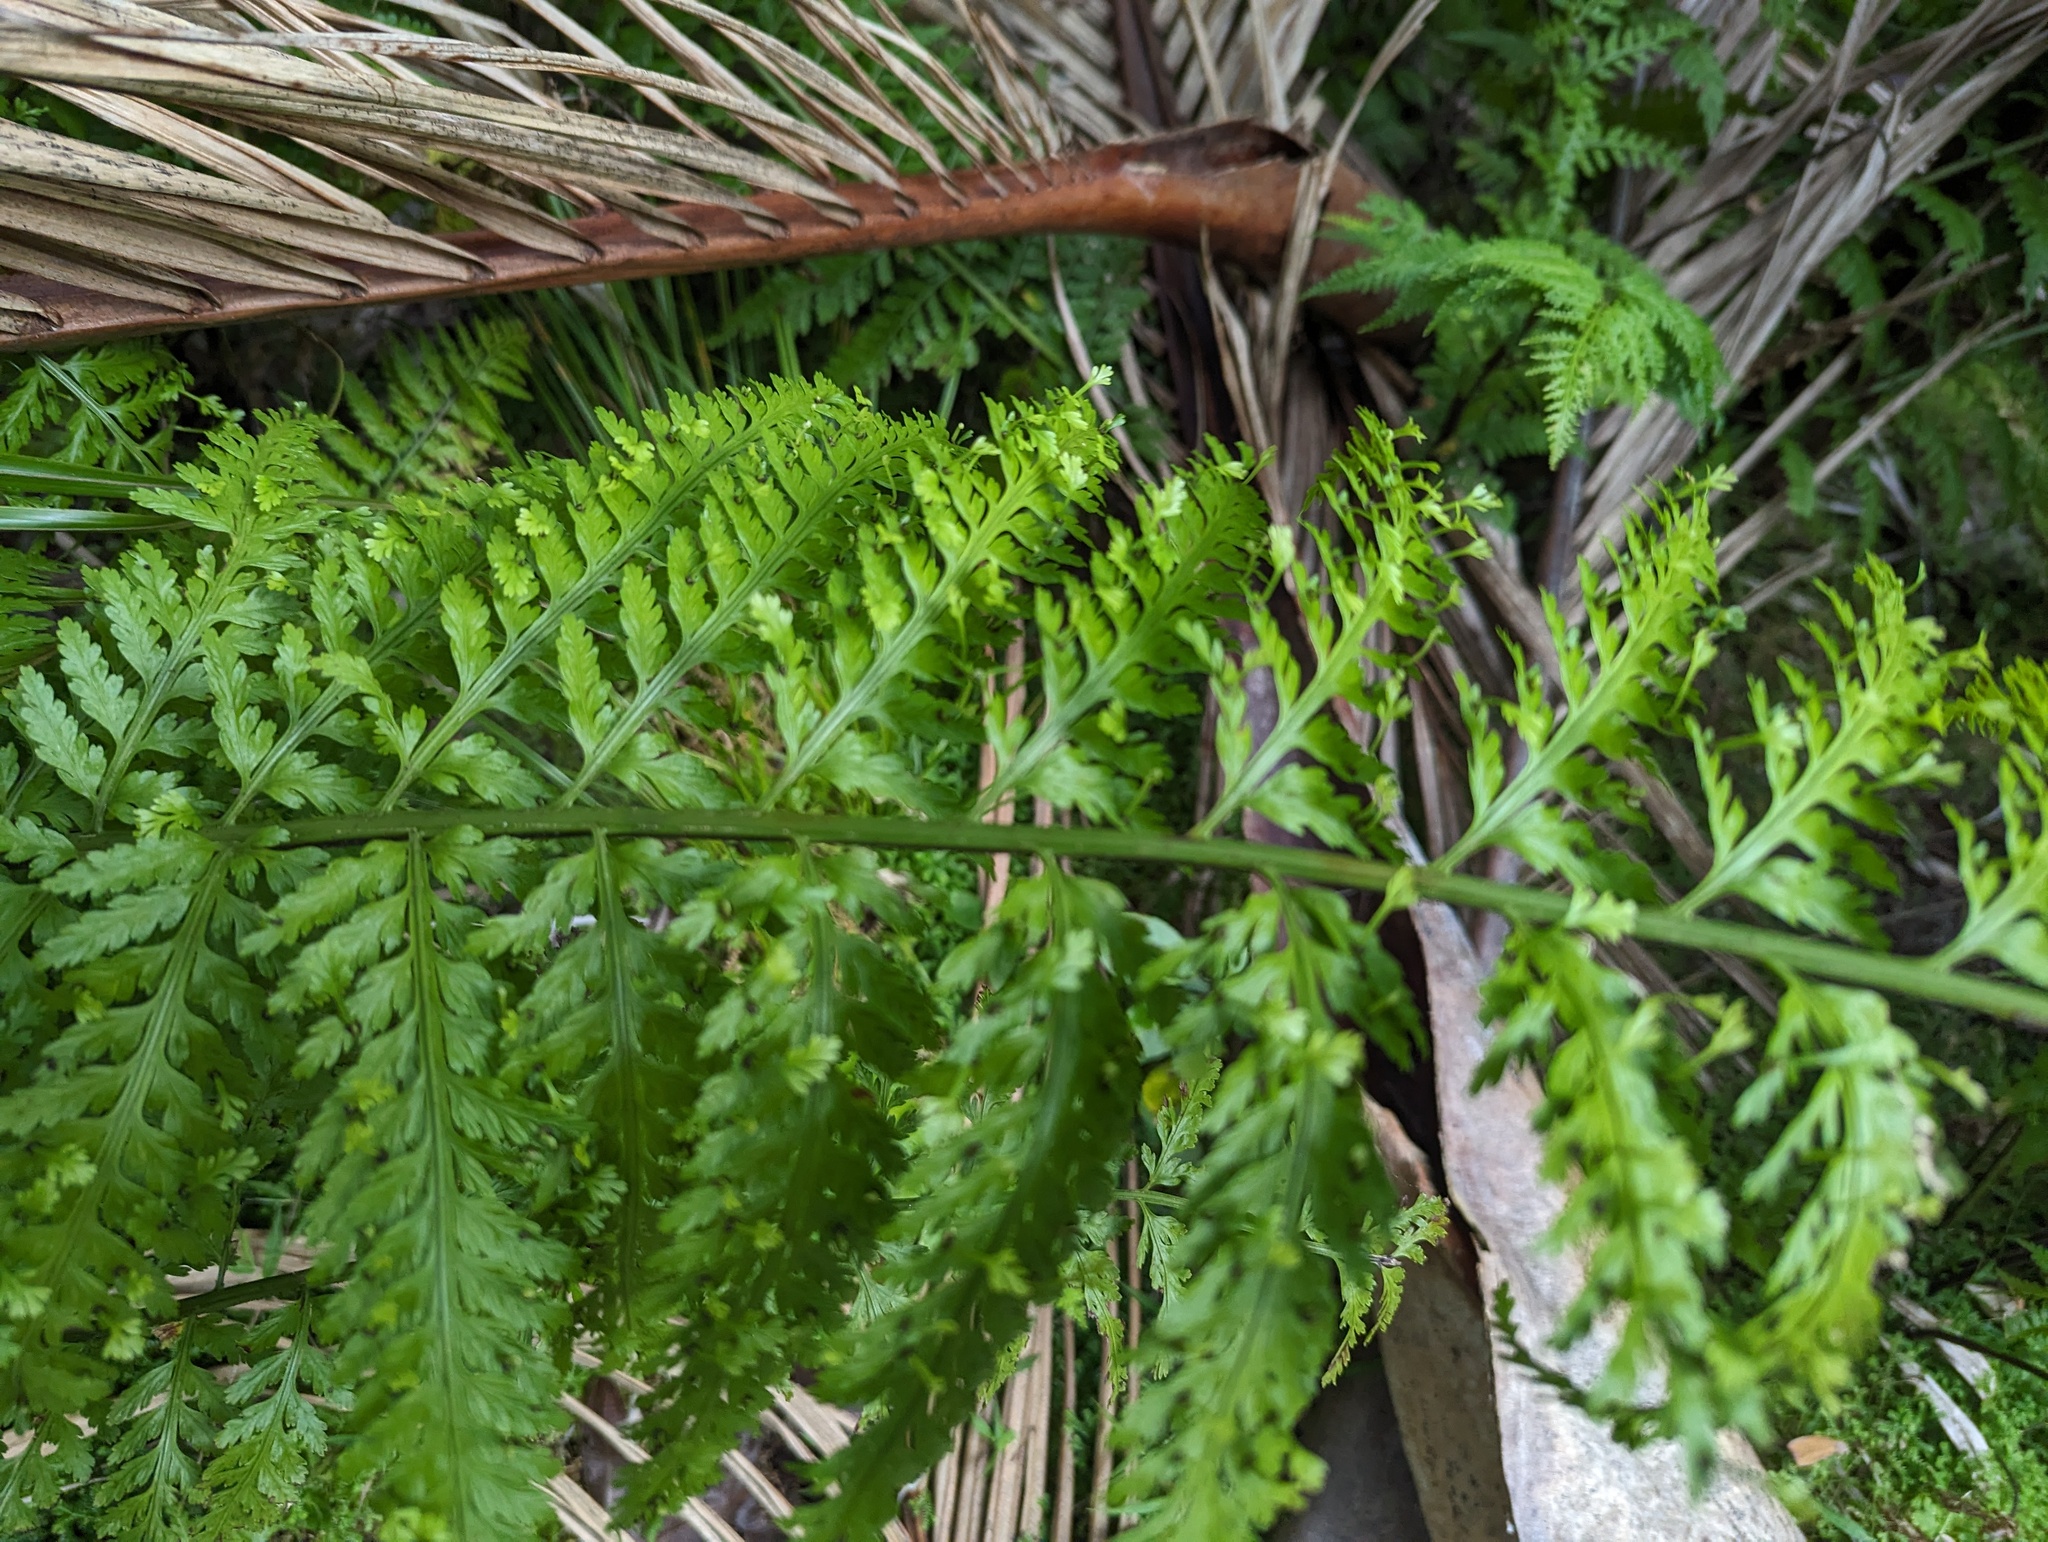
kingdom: Plantae
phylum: Tracheophyta
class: Polypodiopsida
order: Polypodiales
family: Aspleniaceae
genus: Asplenium
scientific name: Asplenium bulbiferum
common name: Mother fern
